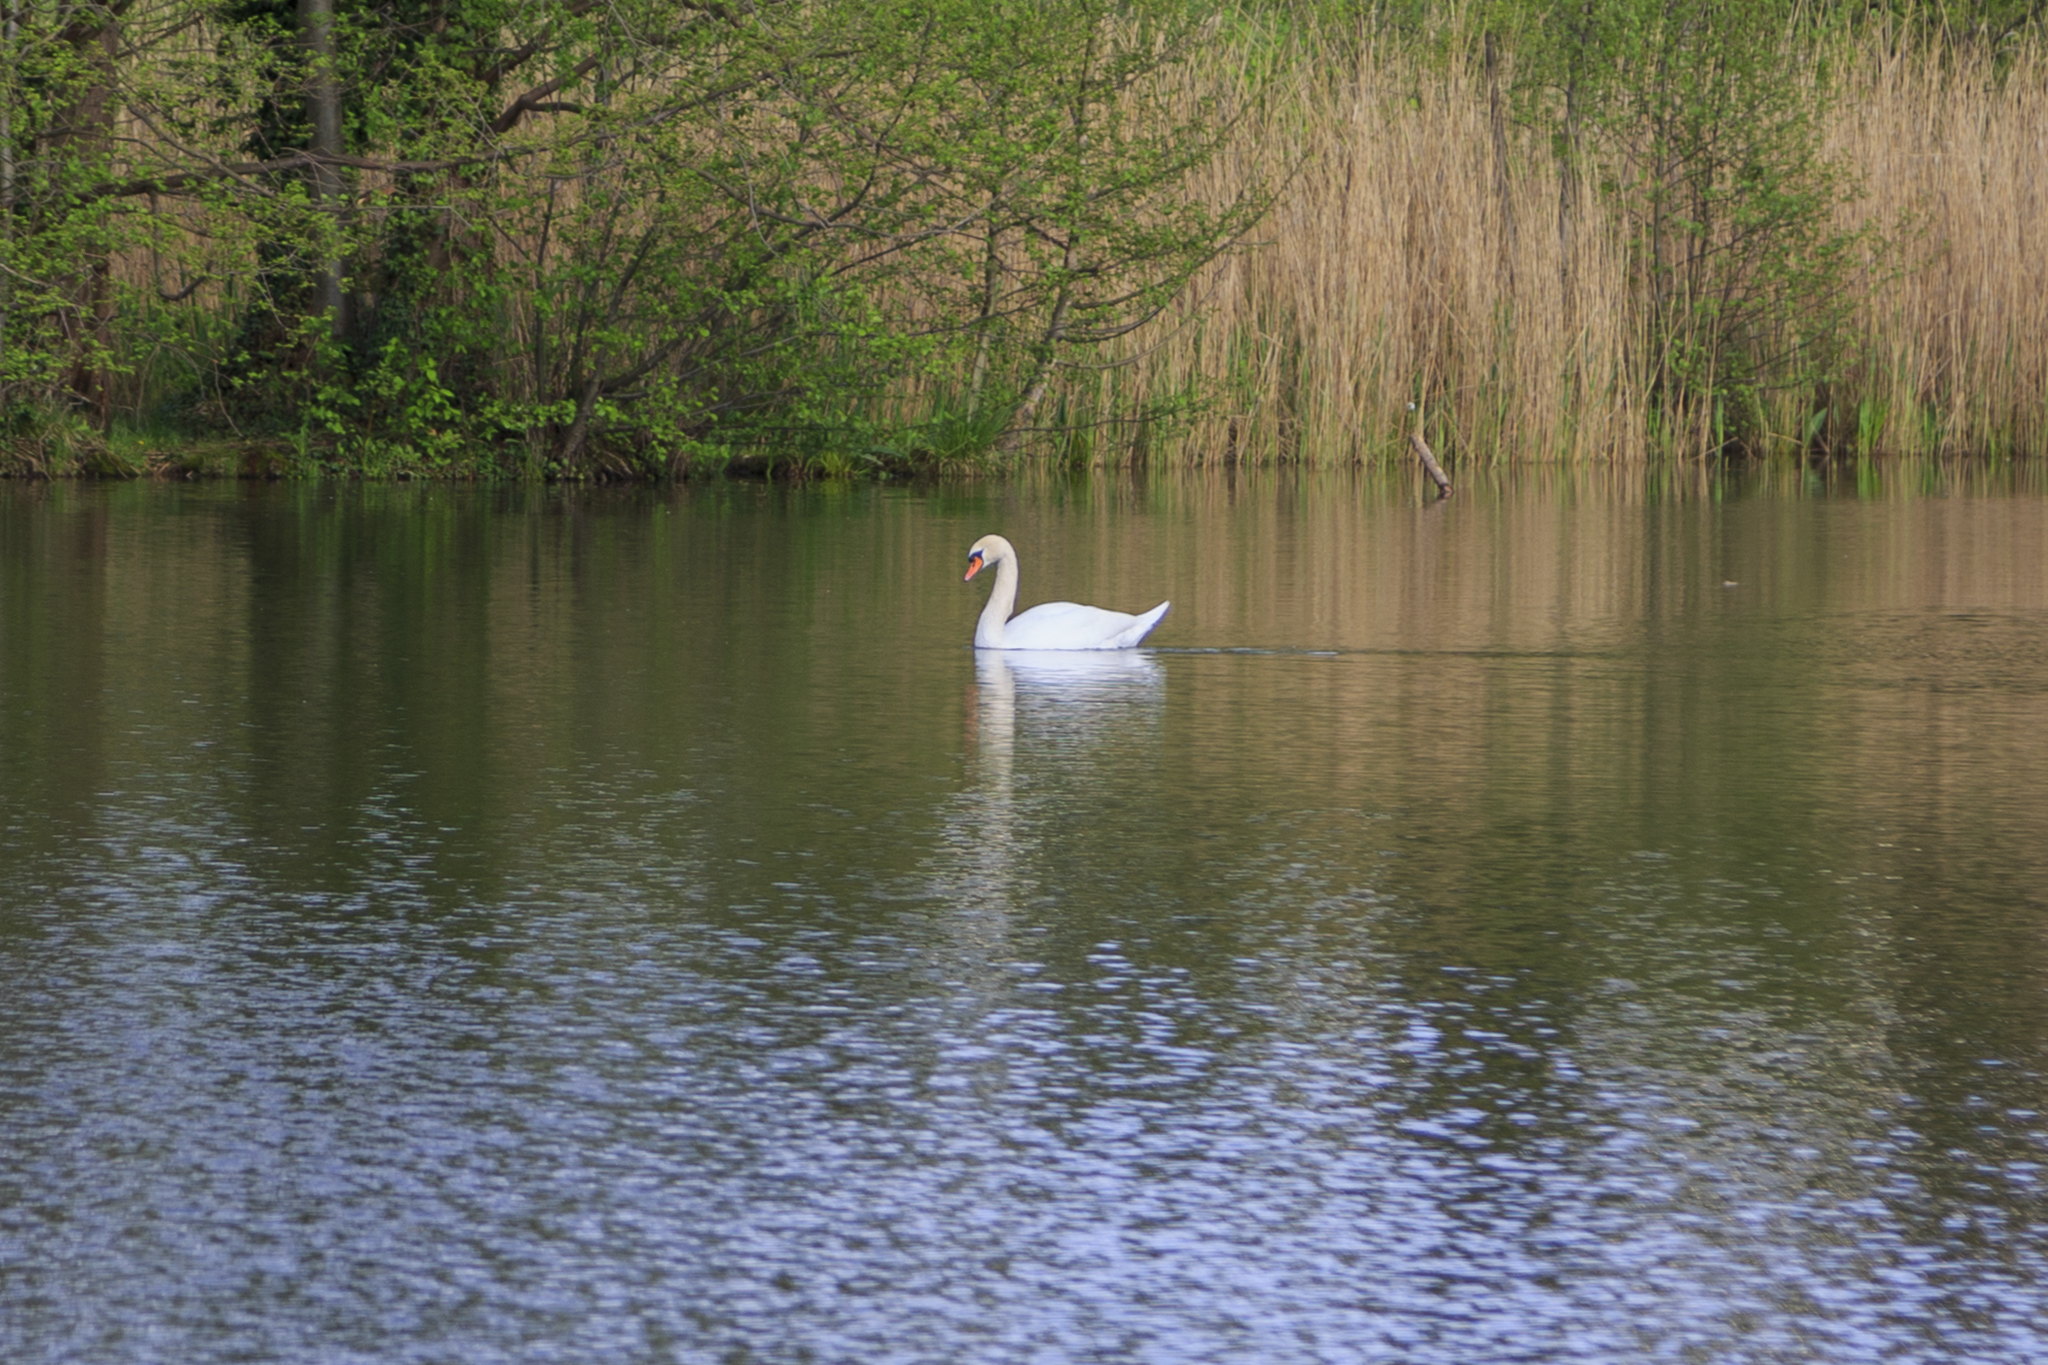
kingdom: Animalia
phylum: Chordata
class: Aves
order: Anseriformes
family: Anatidae
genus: Cygnus
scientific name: Cygnus olor
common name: Mute swan
